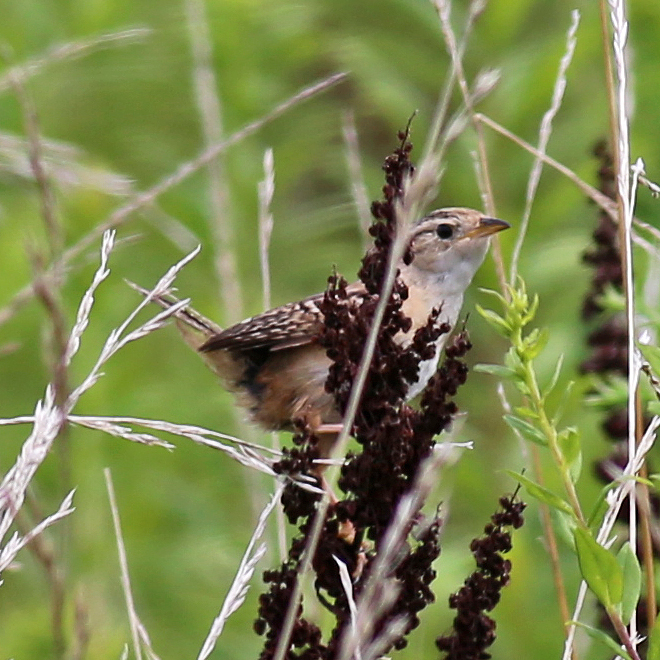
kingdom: Animalia
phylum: Chordata
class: Aves
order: Passeriformes
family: Troglodytidae
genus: Cistothorus
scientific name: Cistothorus platensis
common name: Sedge wren
